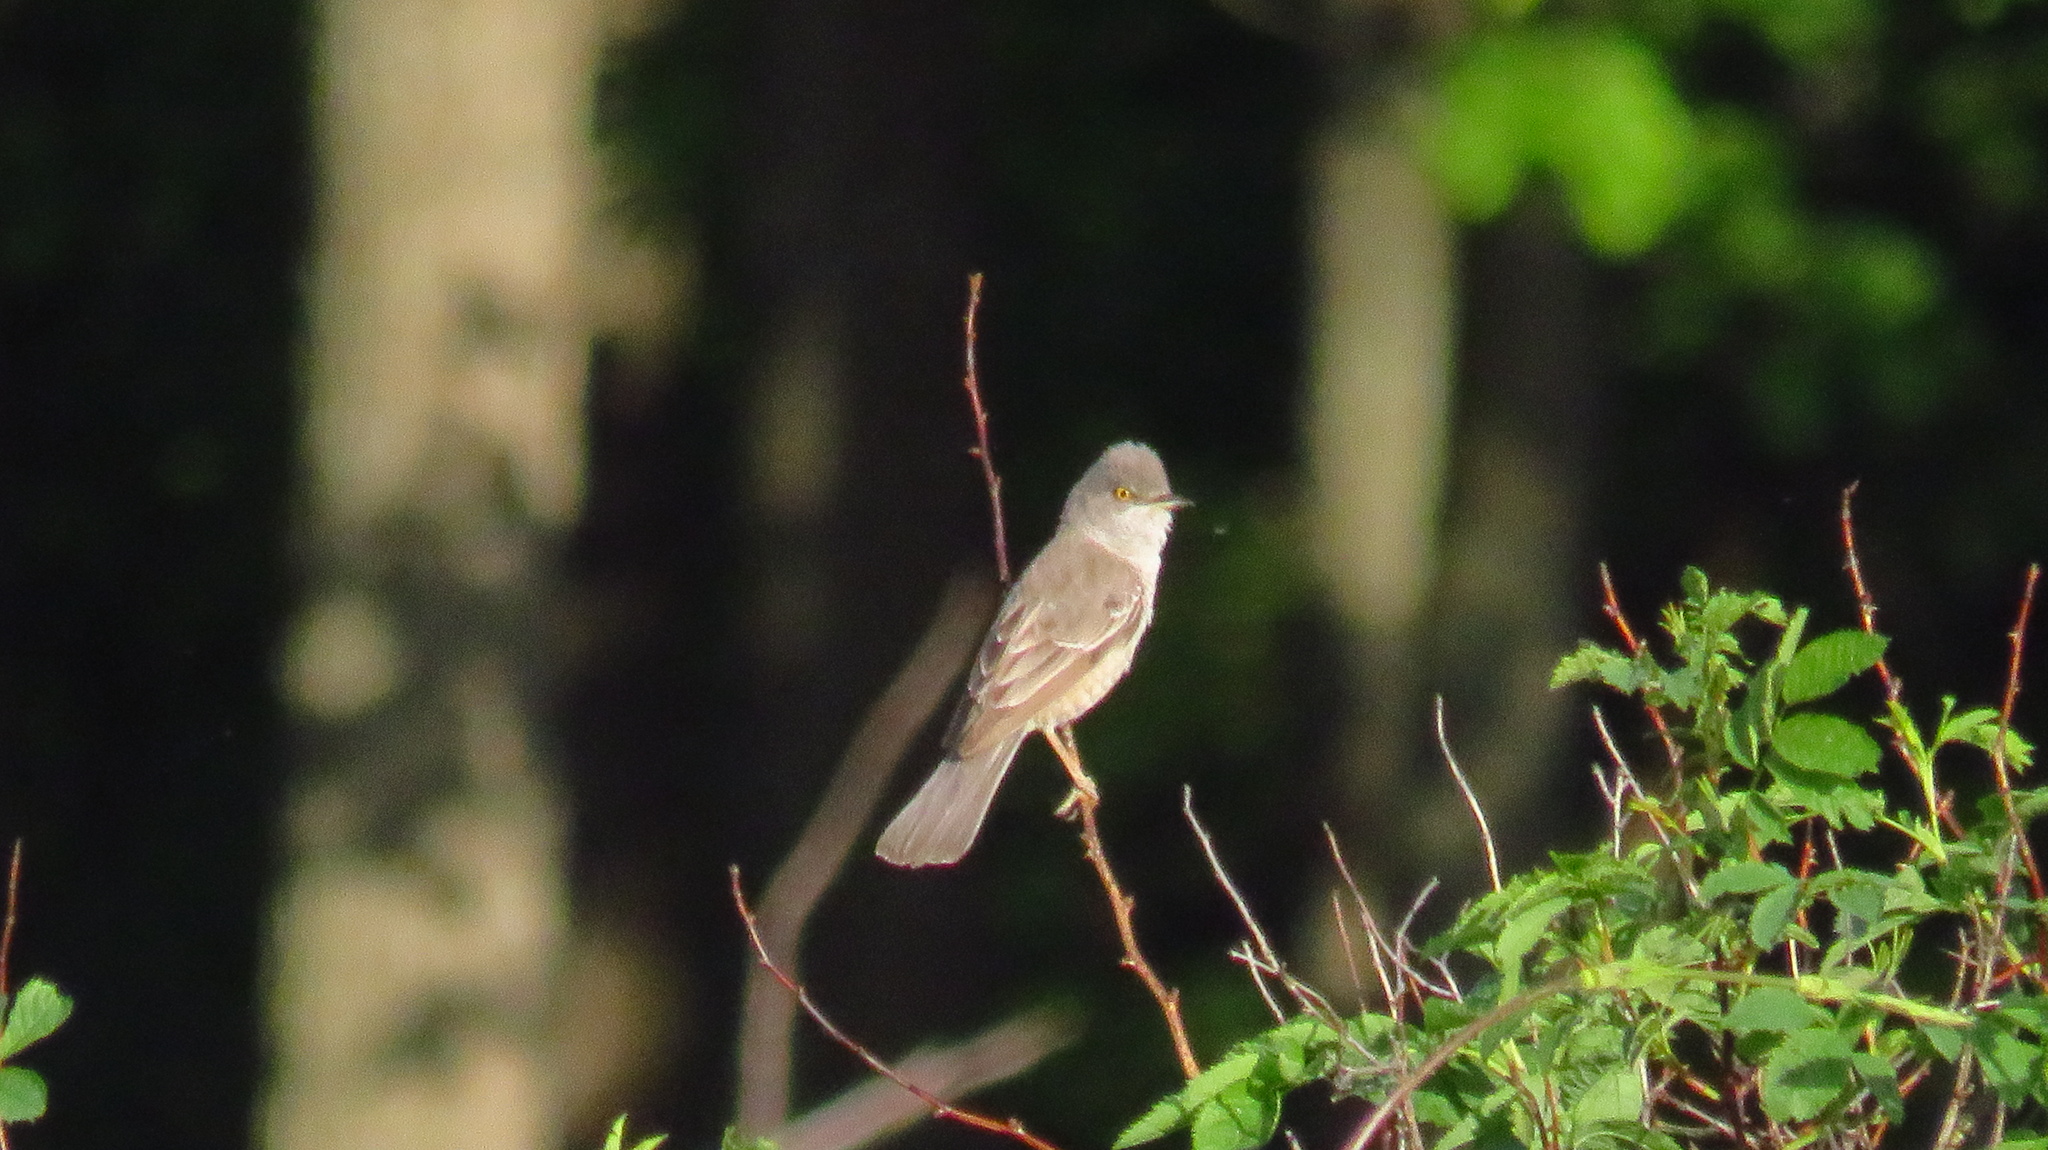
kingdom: Animalia
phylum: Chordata
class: Aves
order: Passeriformes
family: Sylviidae
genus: Sylvia
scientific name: Sylvia nisoria
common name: Barred warbler
